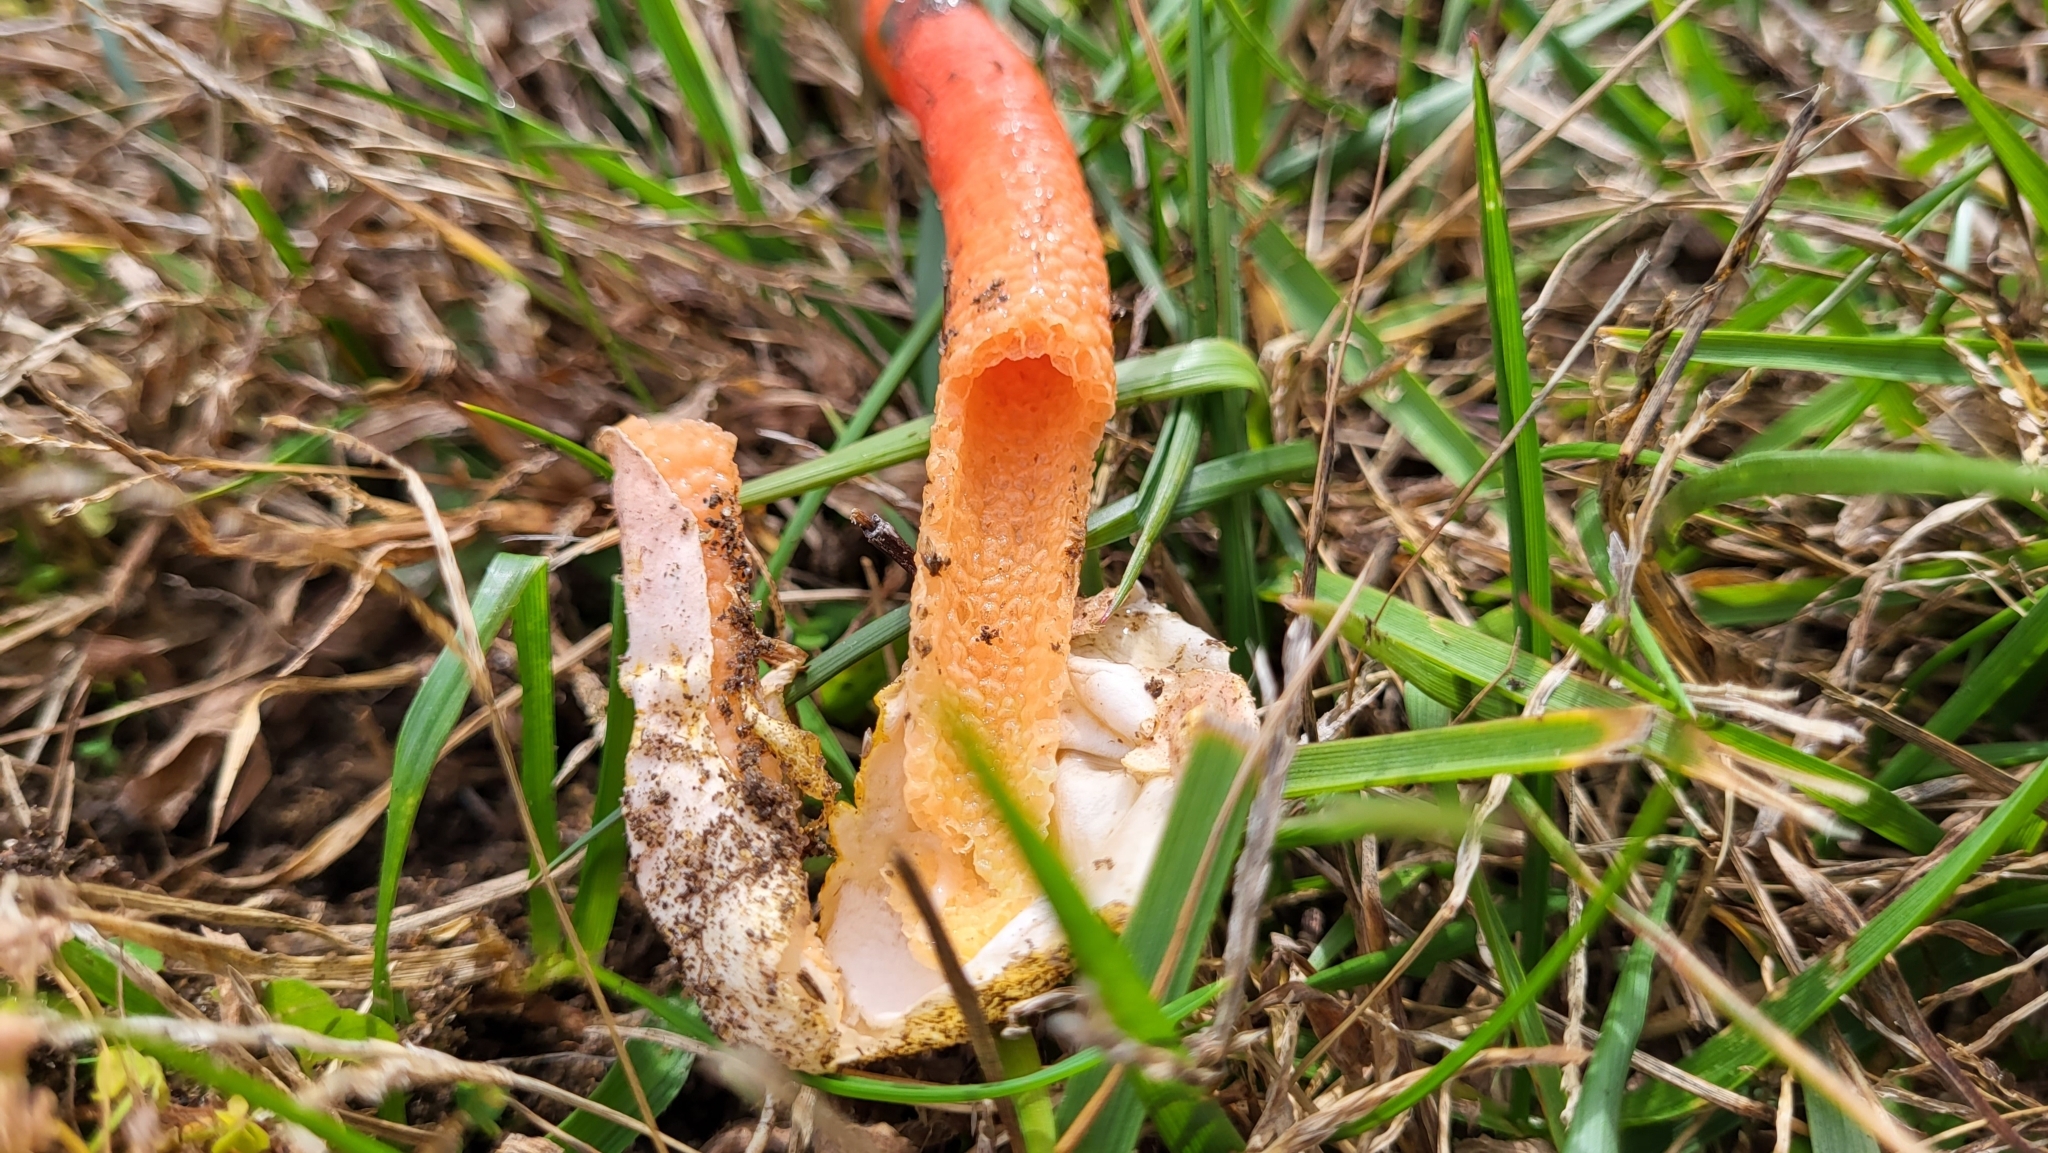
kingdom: Fungi
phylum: Basidiomycota
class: Agaricomycetes
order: Phallales
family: Phallaceae
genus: Mutinus
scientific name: Mutinus elegans
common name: Devil's dipstick
